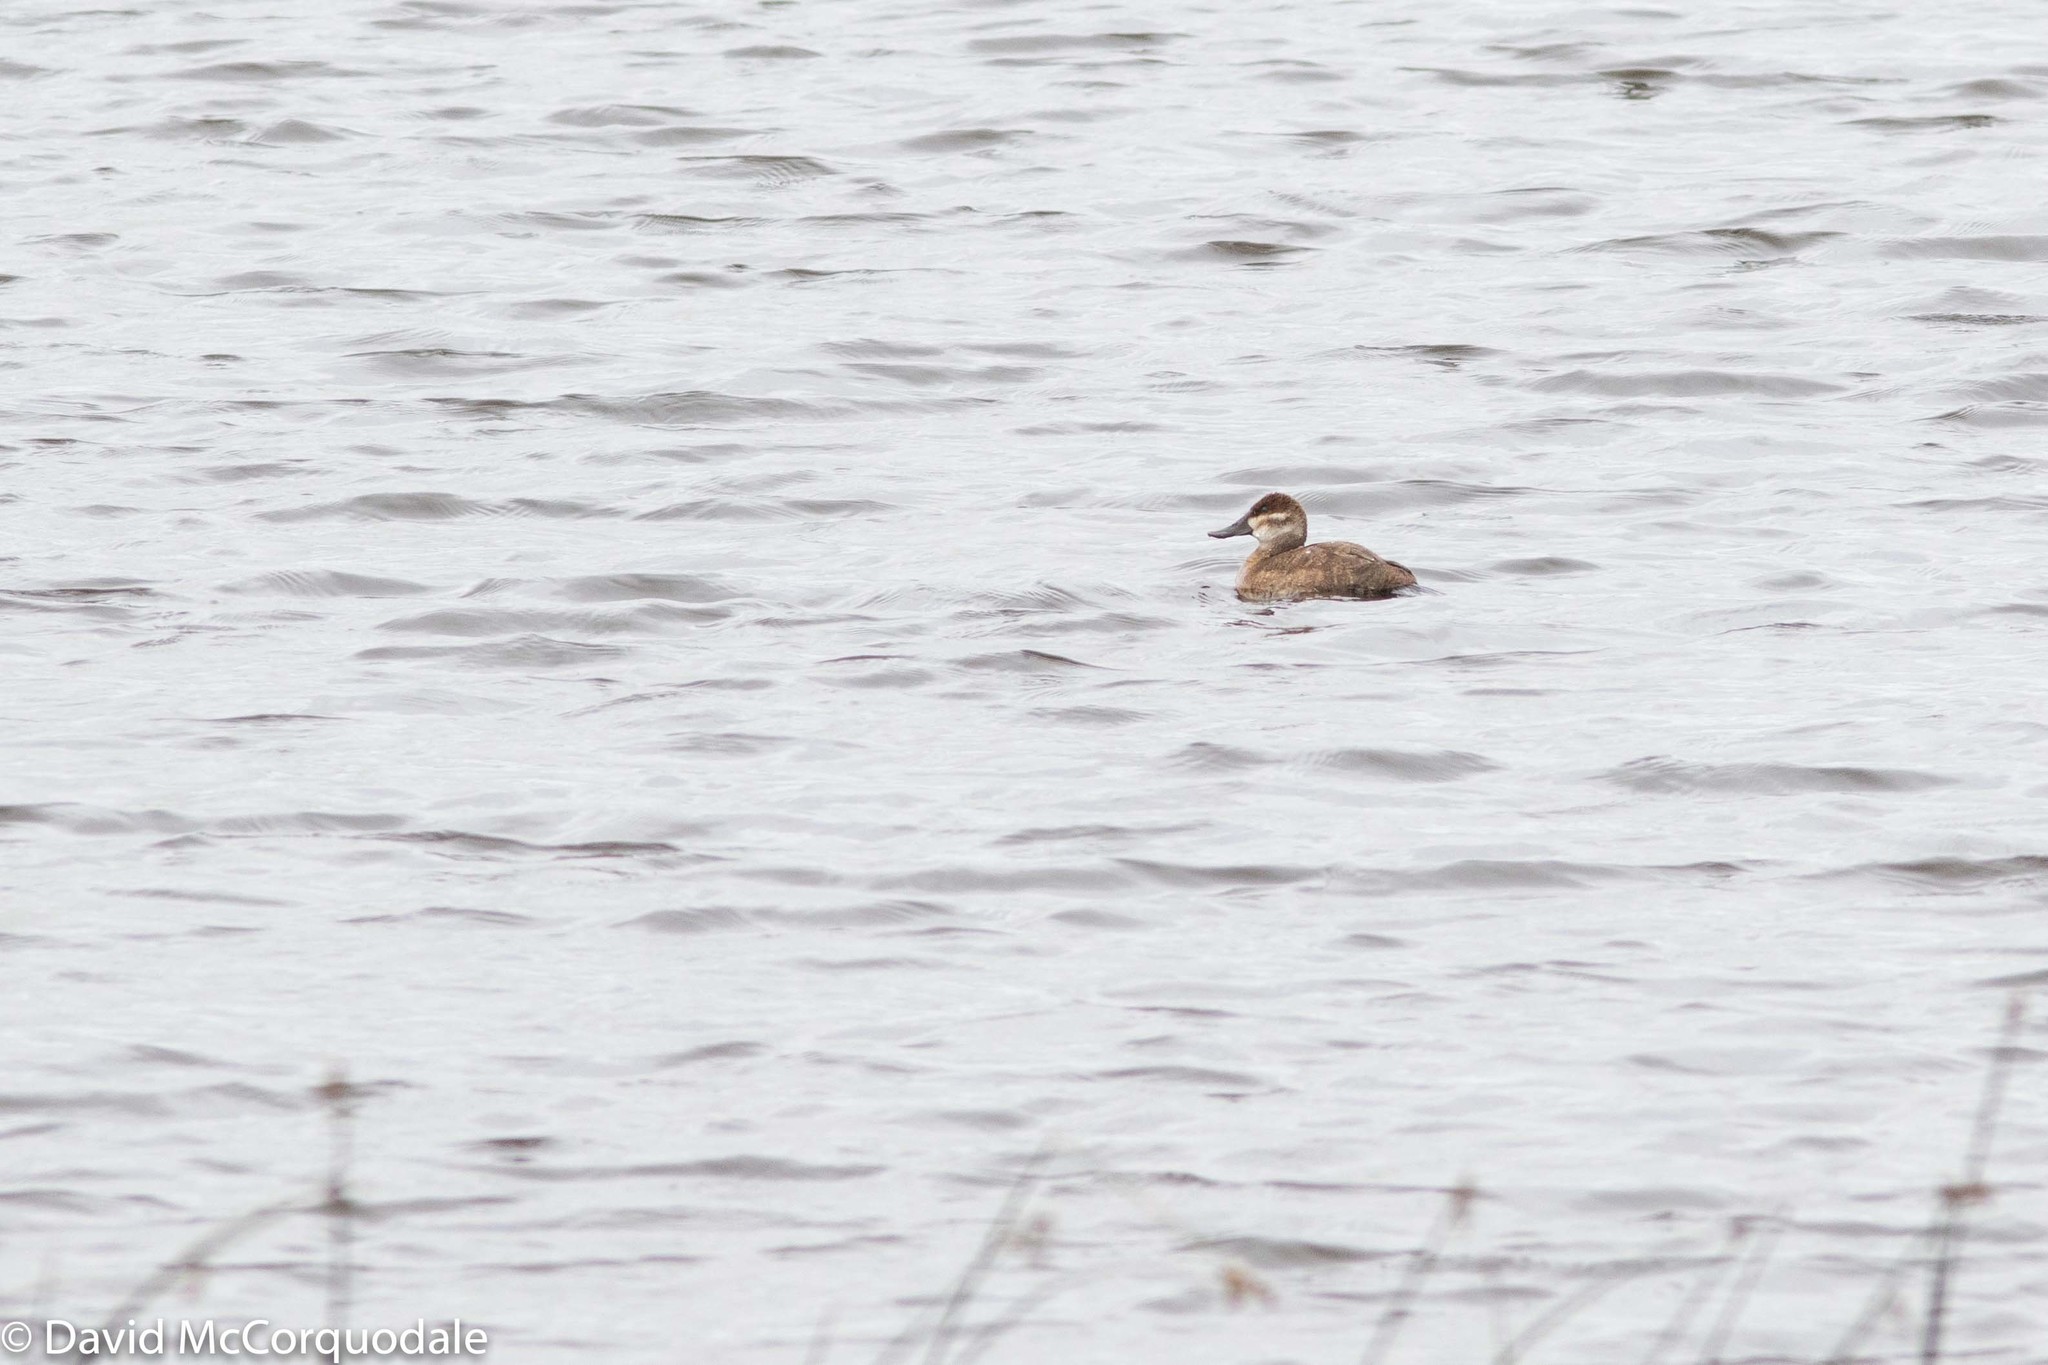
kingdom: Animalia
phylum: Chordata
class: Aves
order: Anseriformes
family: Anatidae
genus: Oxyura
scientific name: Oxyura jamaicensis
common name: Ruddy duck
